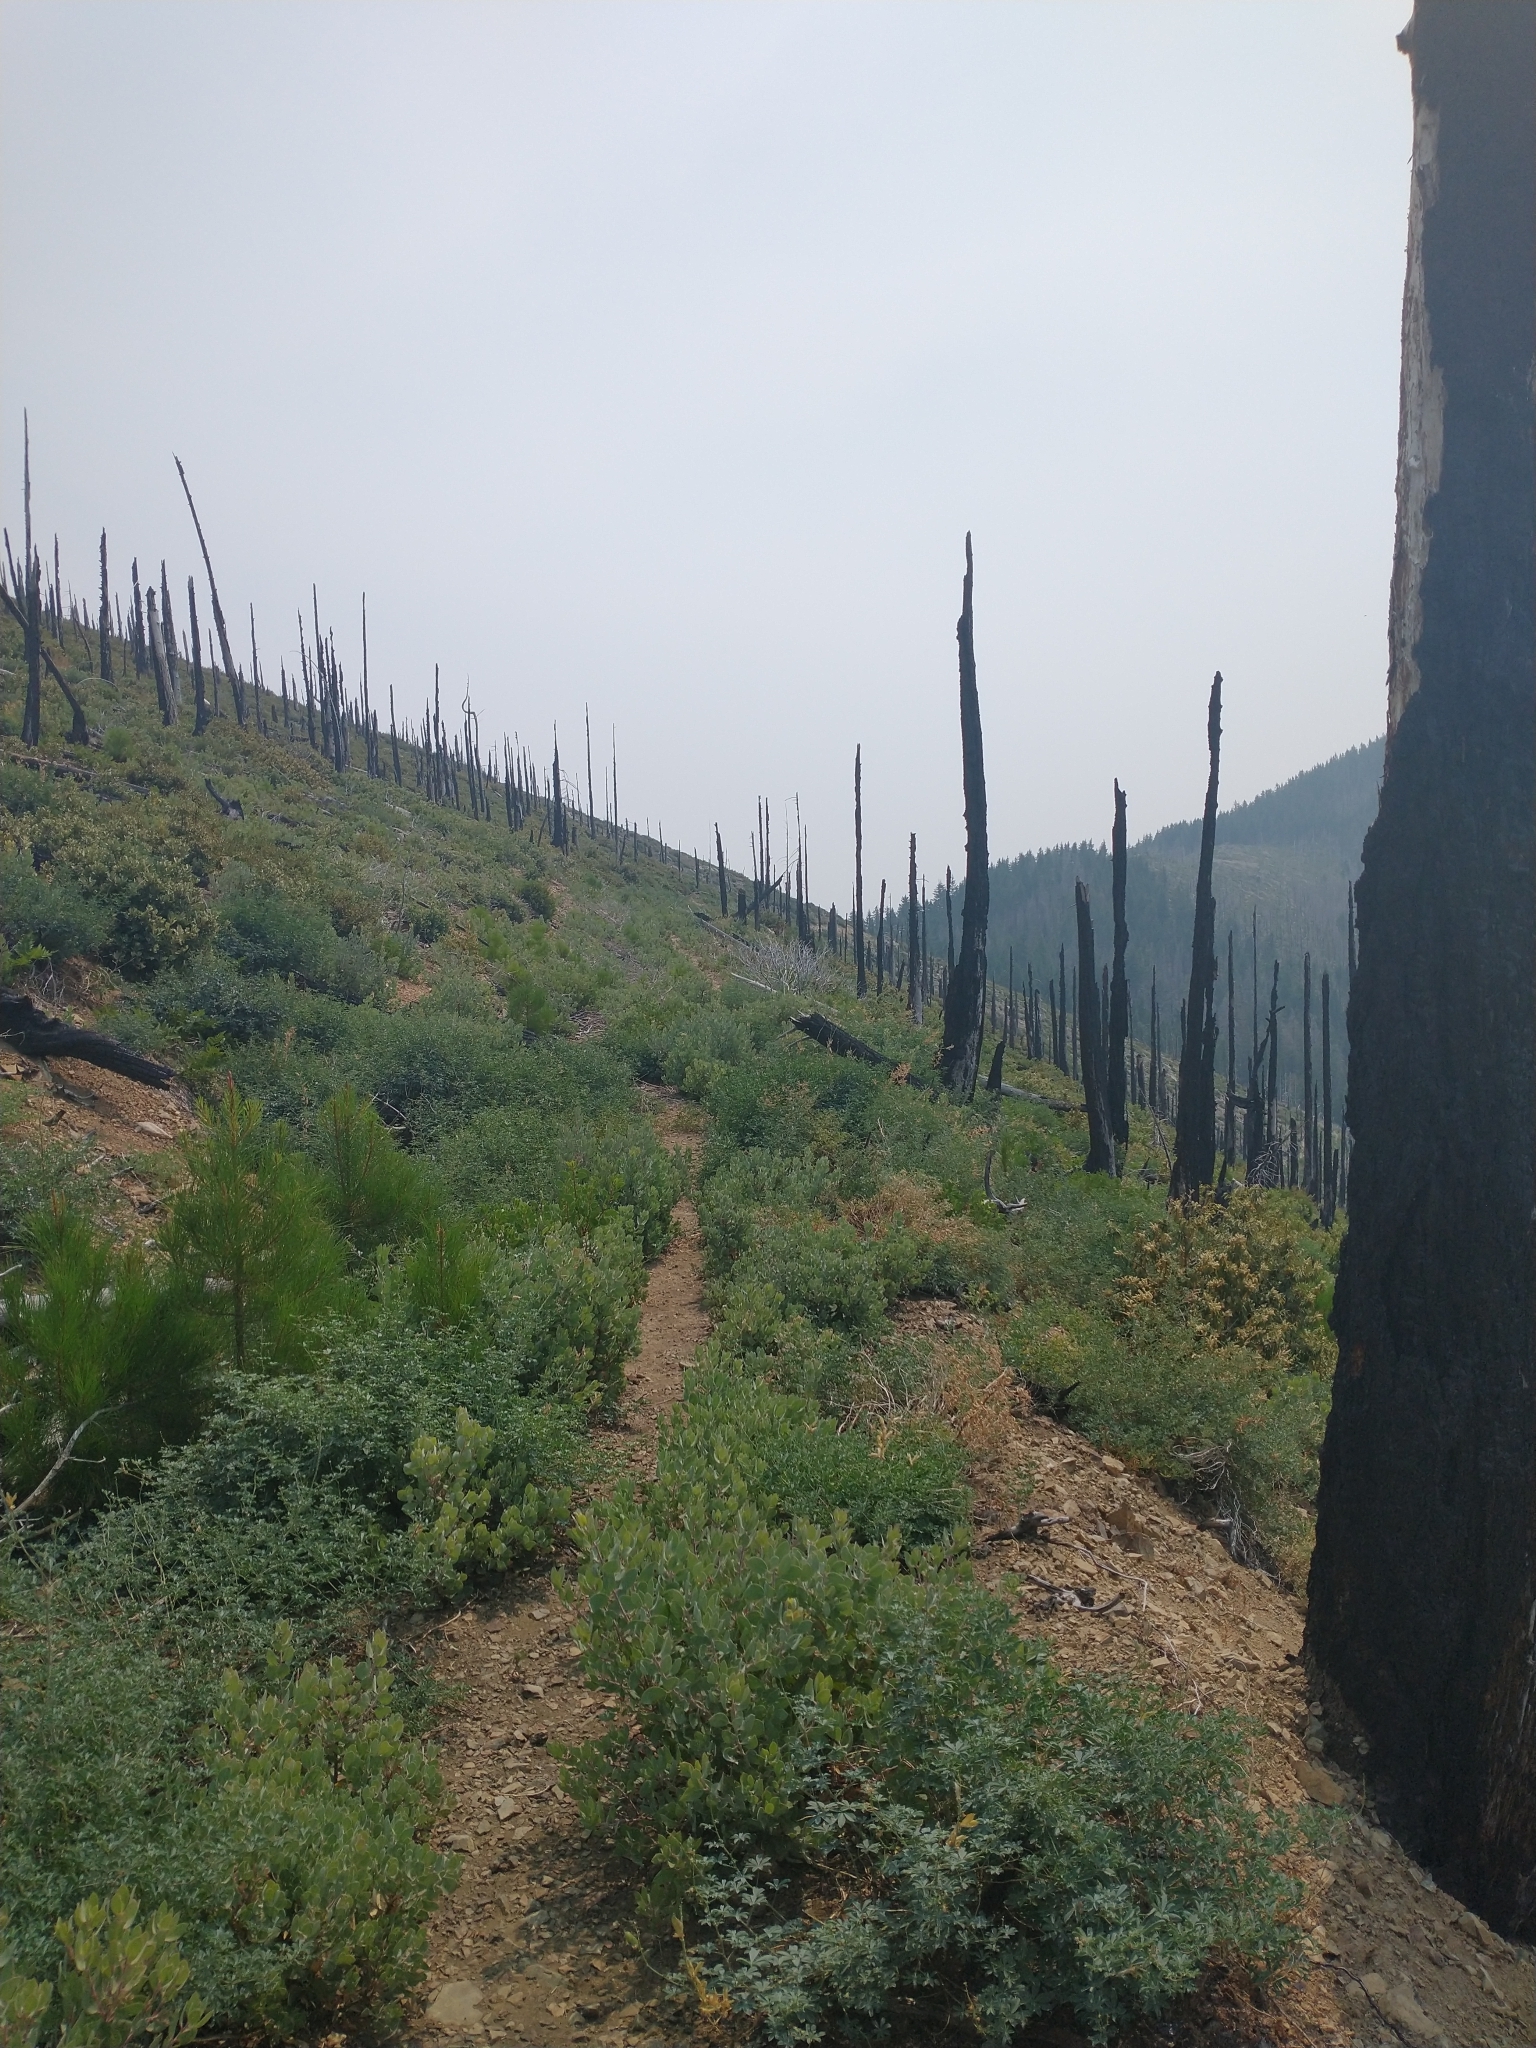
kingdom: Plantae
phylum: Tracheophyta
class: Pinopsida
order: Pinales
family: Pinaceae
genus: Pinus
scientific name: Pinus attenuata
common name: Knobcone pine
